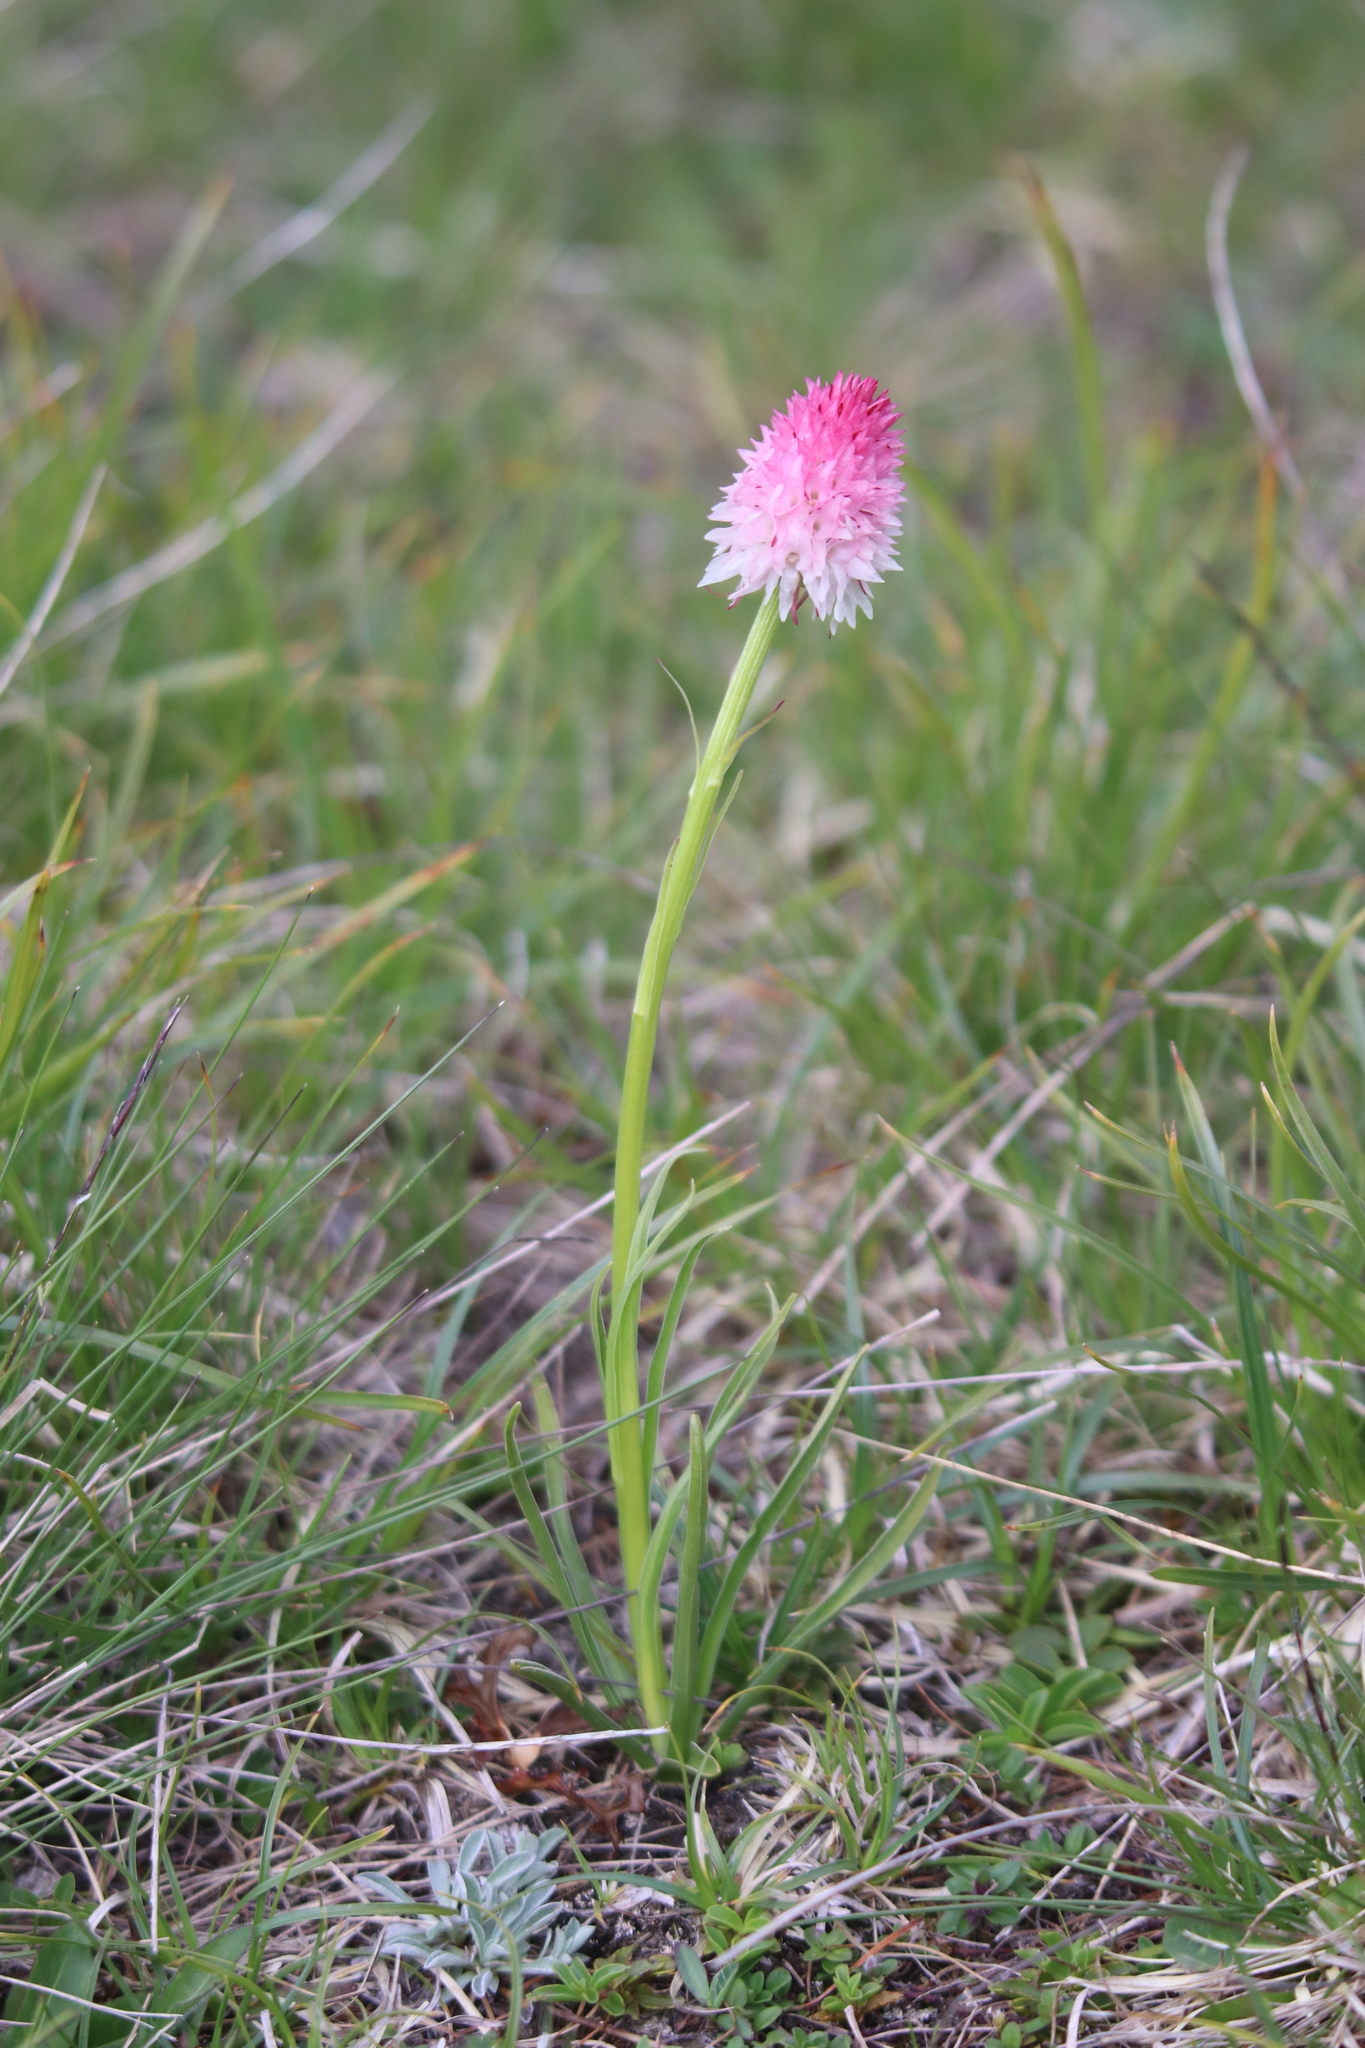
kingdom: Plantae
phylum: Tracheophyta
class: Liliopsida
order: Asparagales
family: Orchidaceae
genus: Gymnadenia
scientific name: Gymnadenia corneliana
